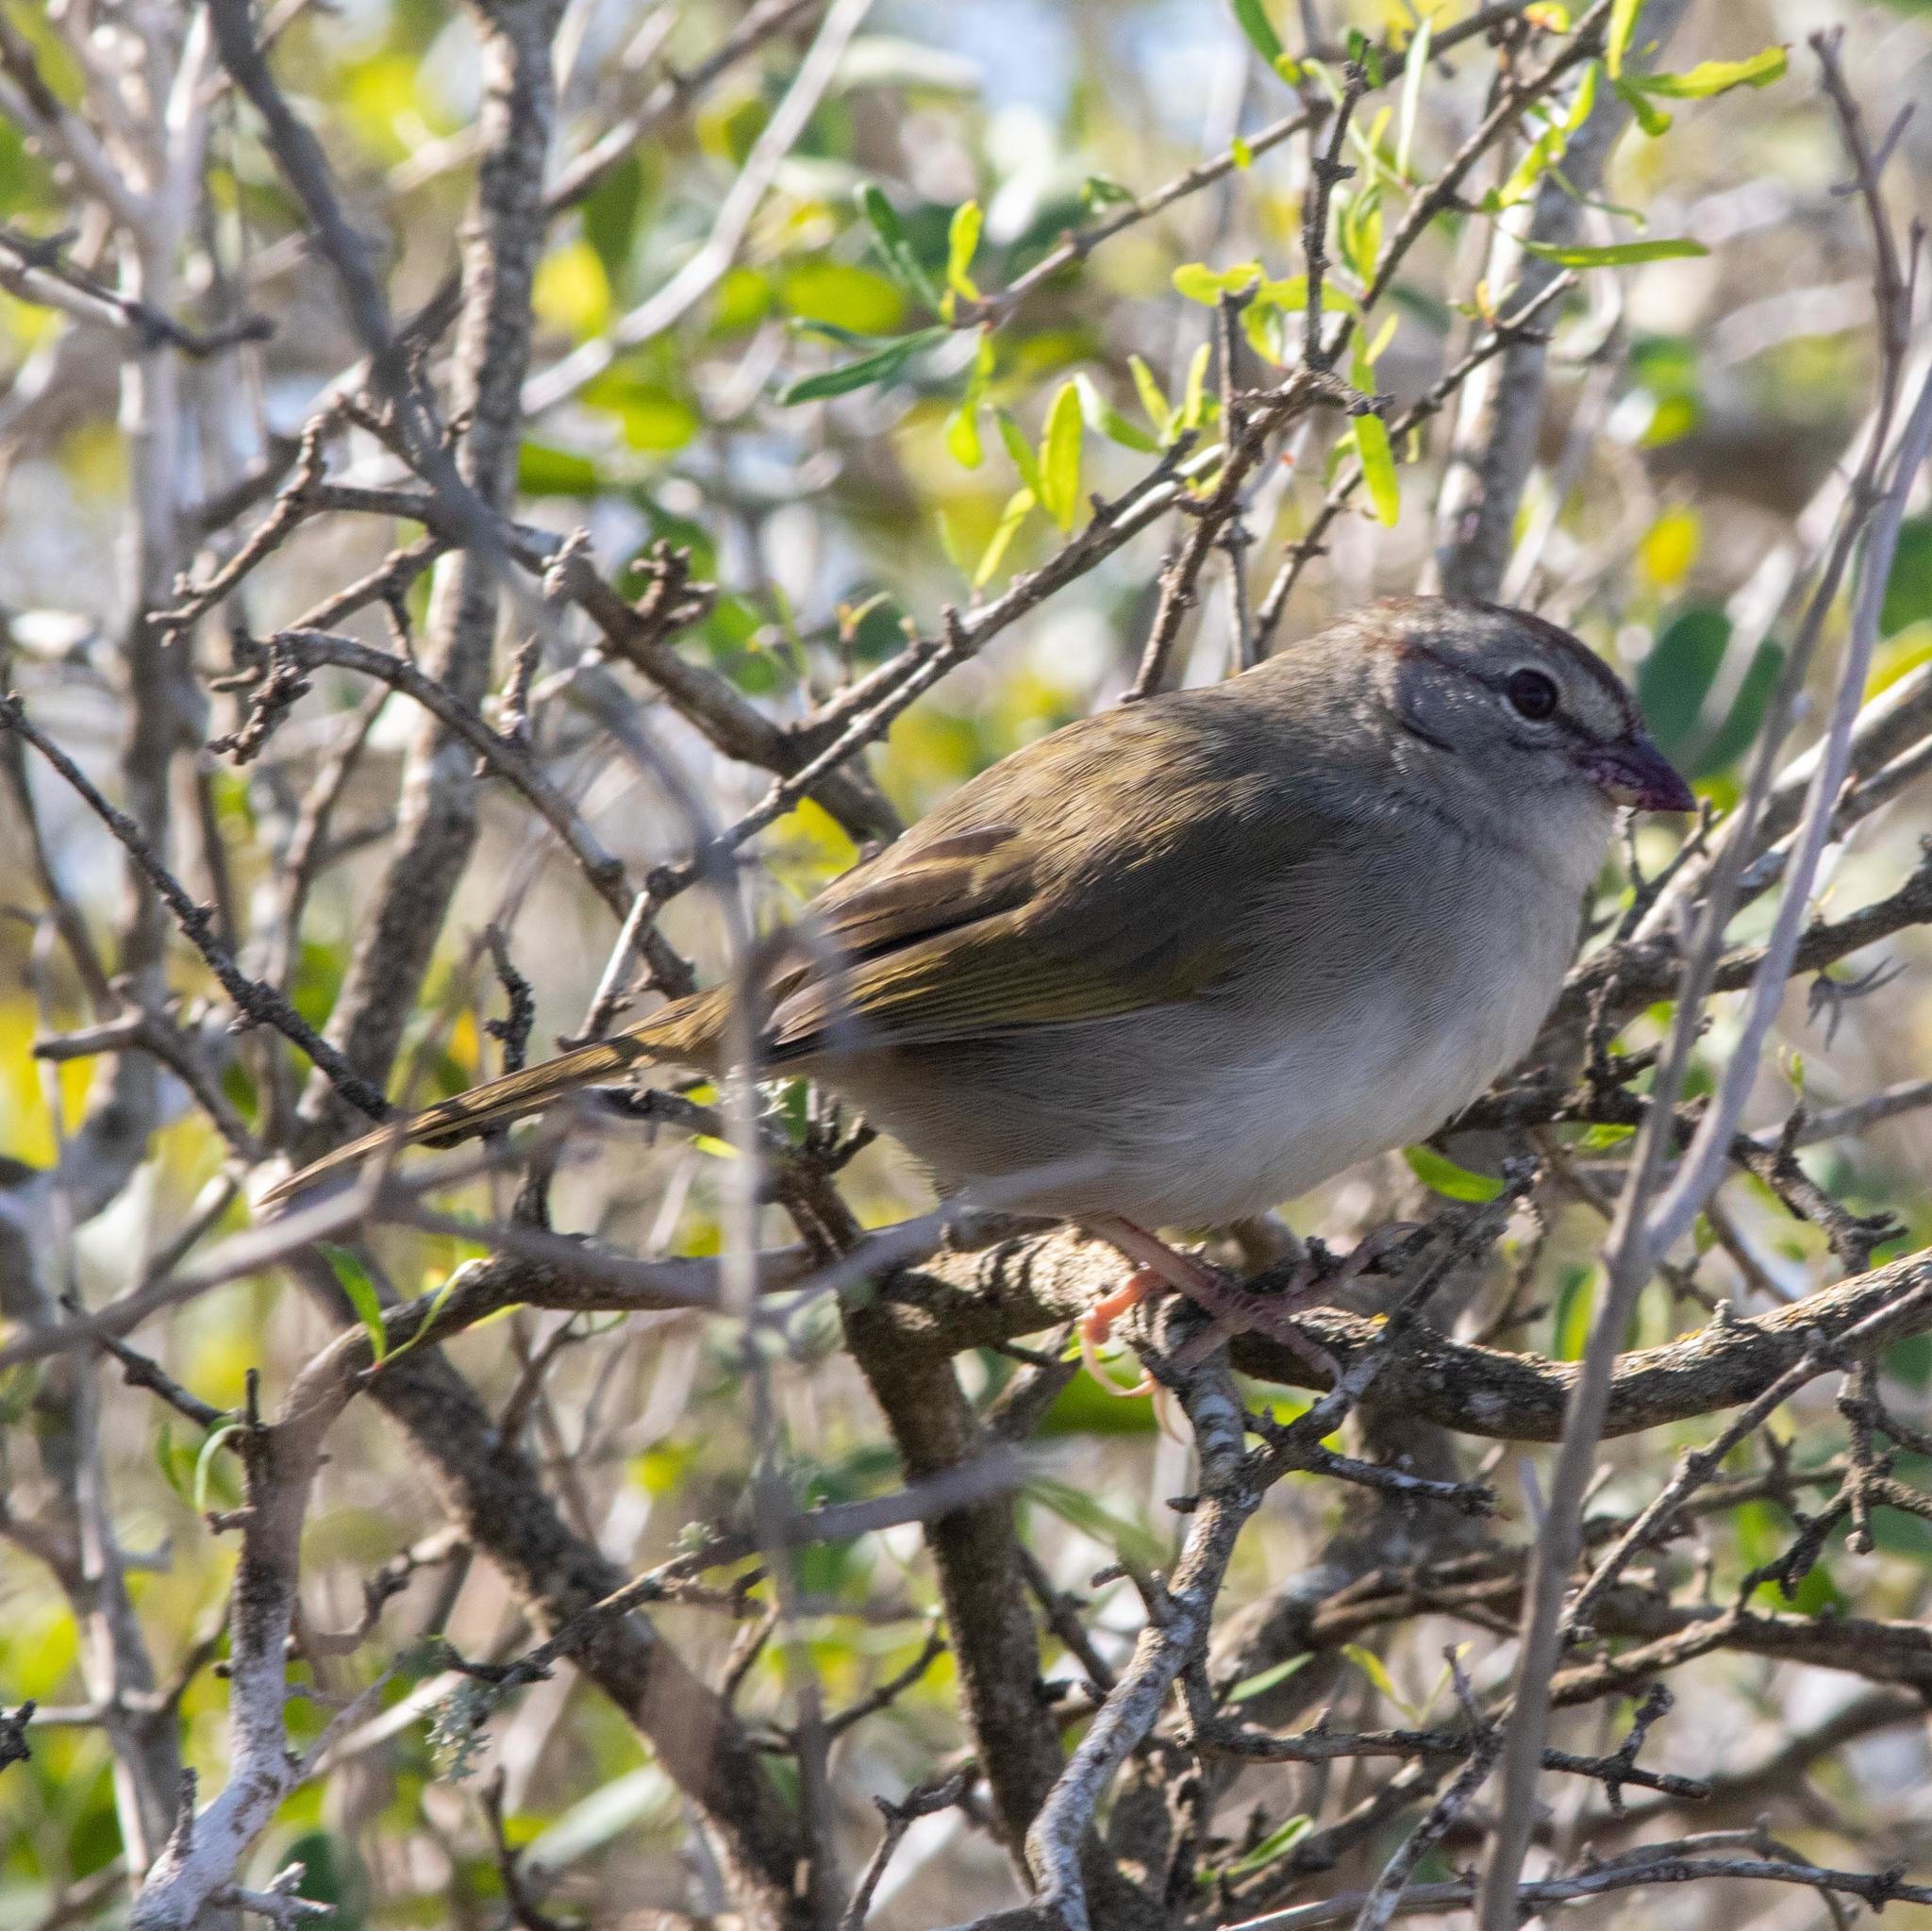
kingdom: Animalia
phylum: Chordata
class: Aves
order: Passeriformes
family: Passerellidae
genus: Arremonops
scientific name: Arremonops rufivirgatus
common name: Olive sparrow
